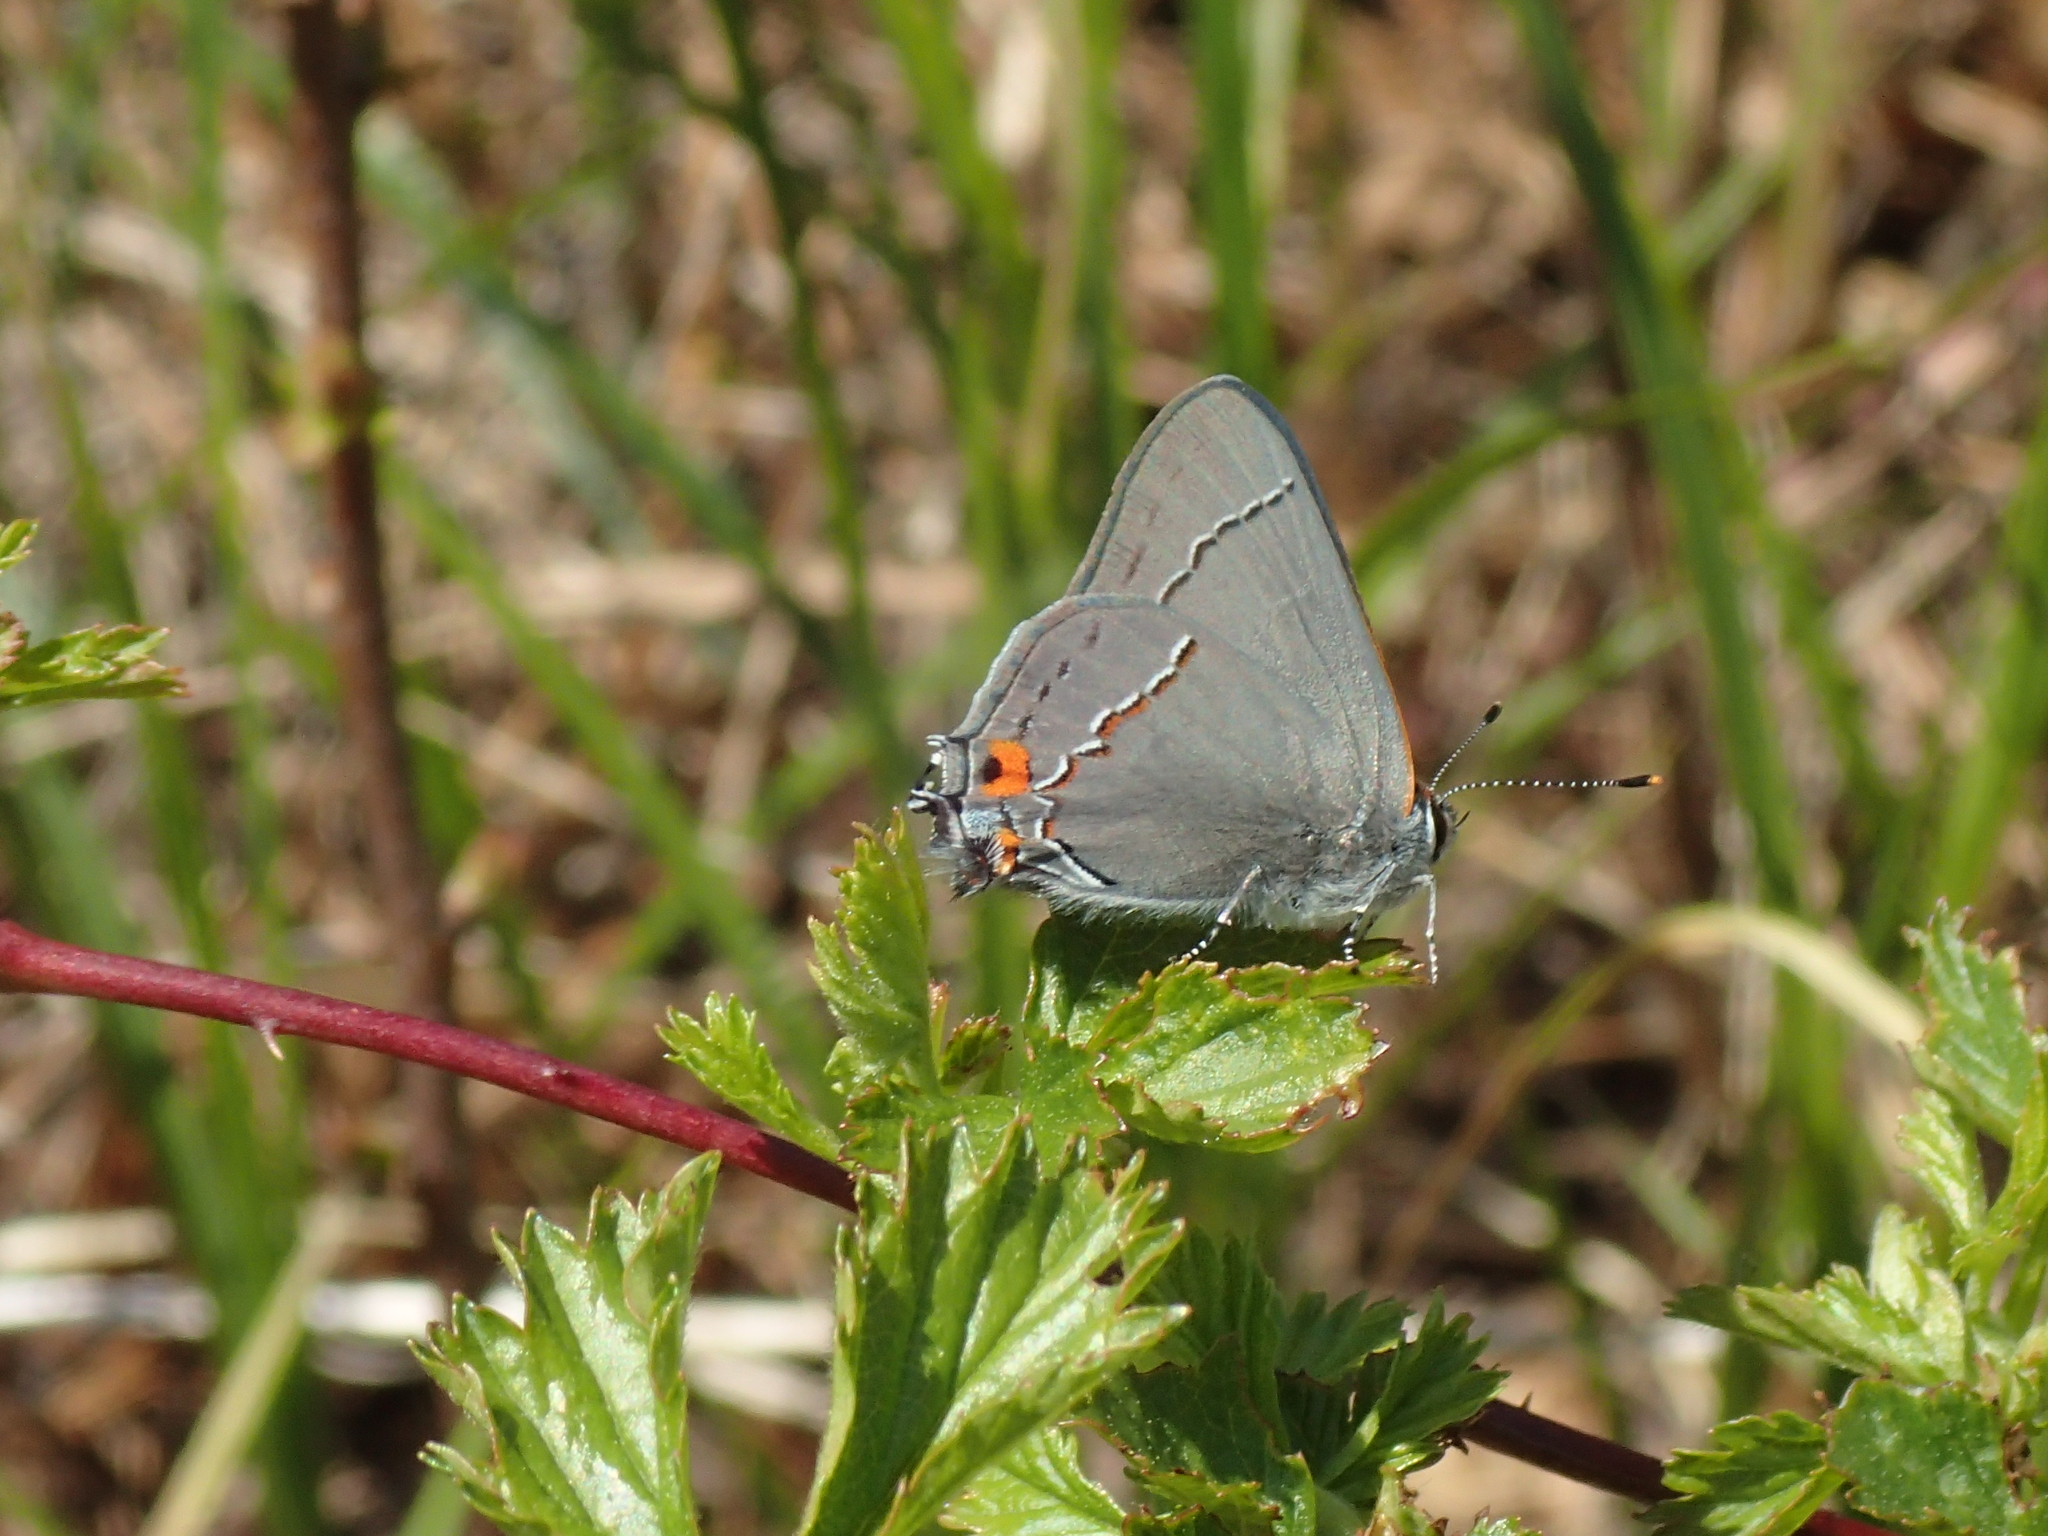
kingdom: Animalia
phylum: Arthropoda
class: Insecta
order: Lepidoptera
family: Lycaenidae
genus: Strymon
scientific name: Strymon melinus
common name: Gray hairstreak
